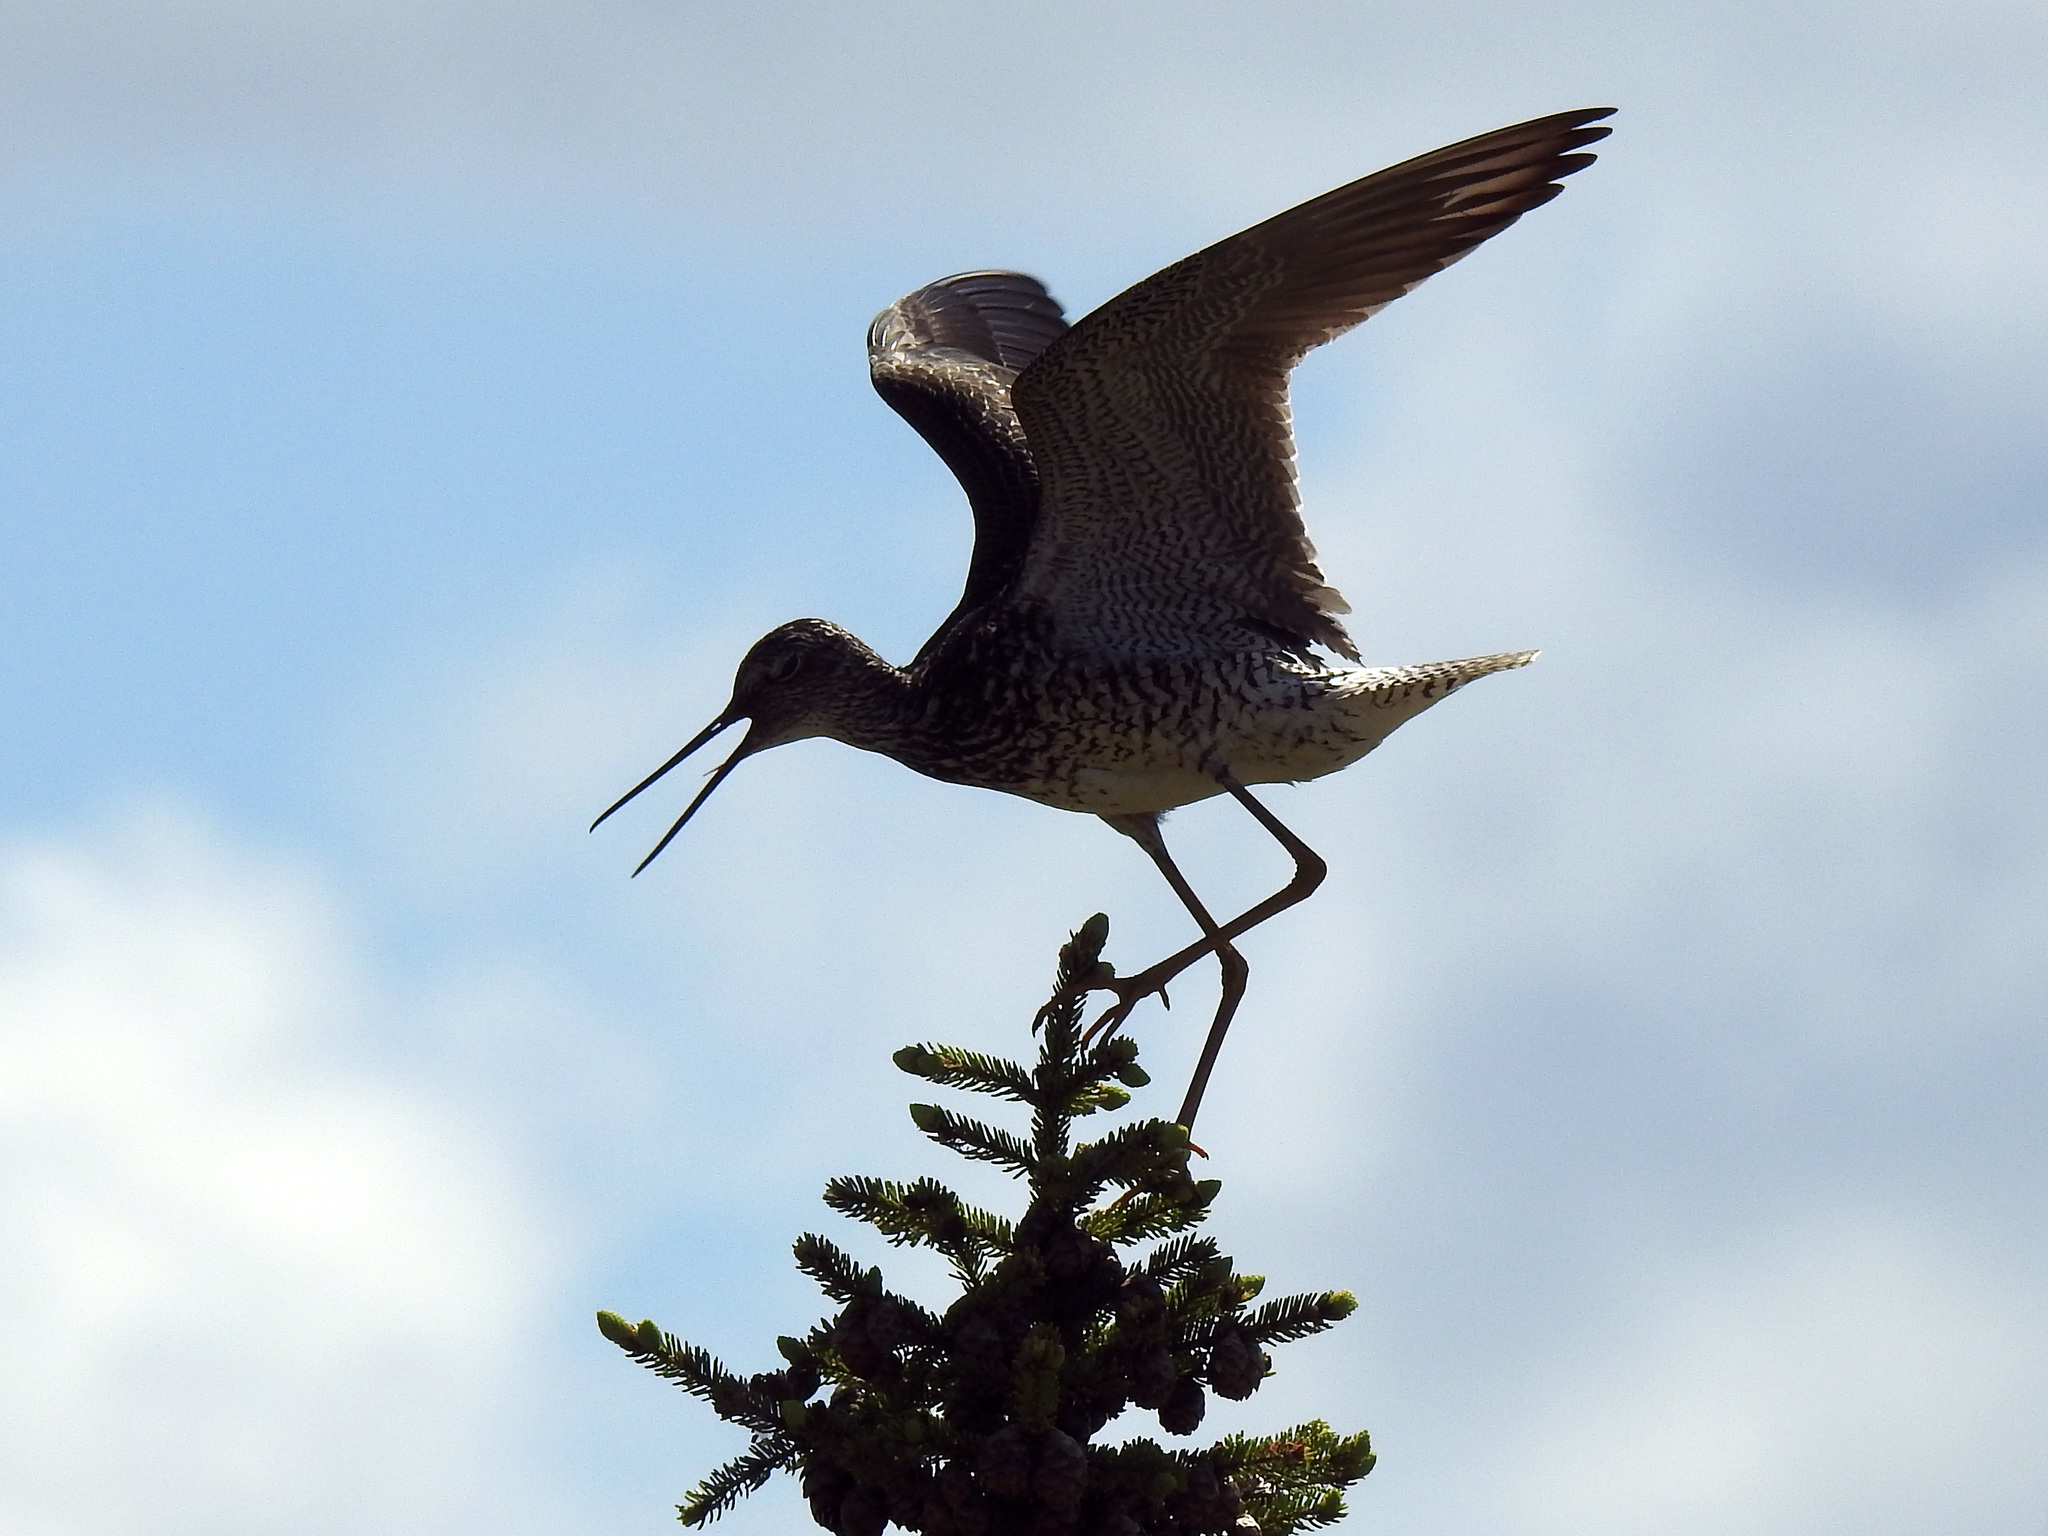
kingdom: Animalia
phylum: Chordata
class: Aves
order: Charadriiformes
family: Scolopacidae
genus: Tringa
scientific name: Tringa melanoleuca
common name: Greater yellowlegs
